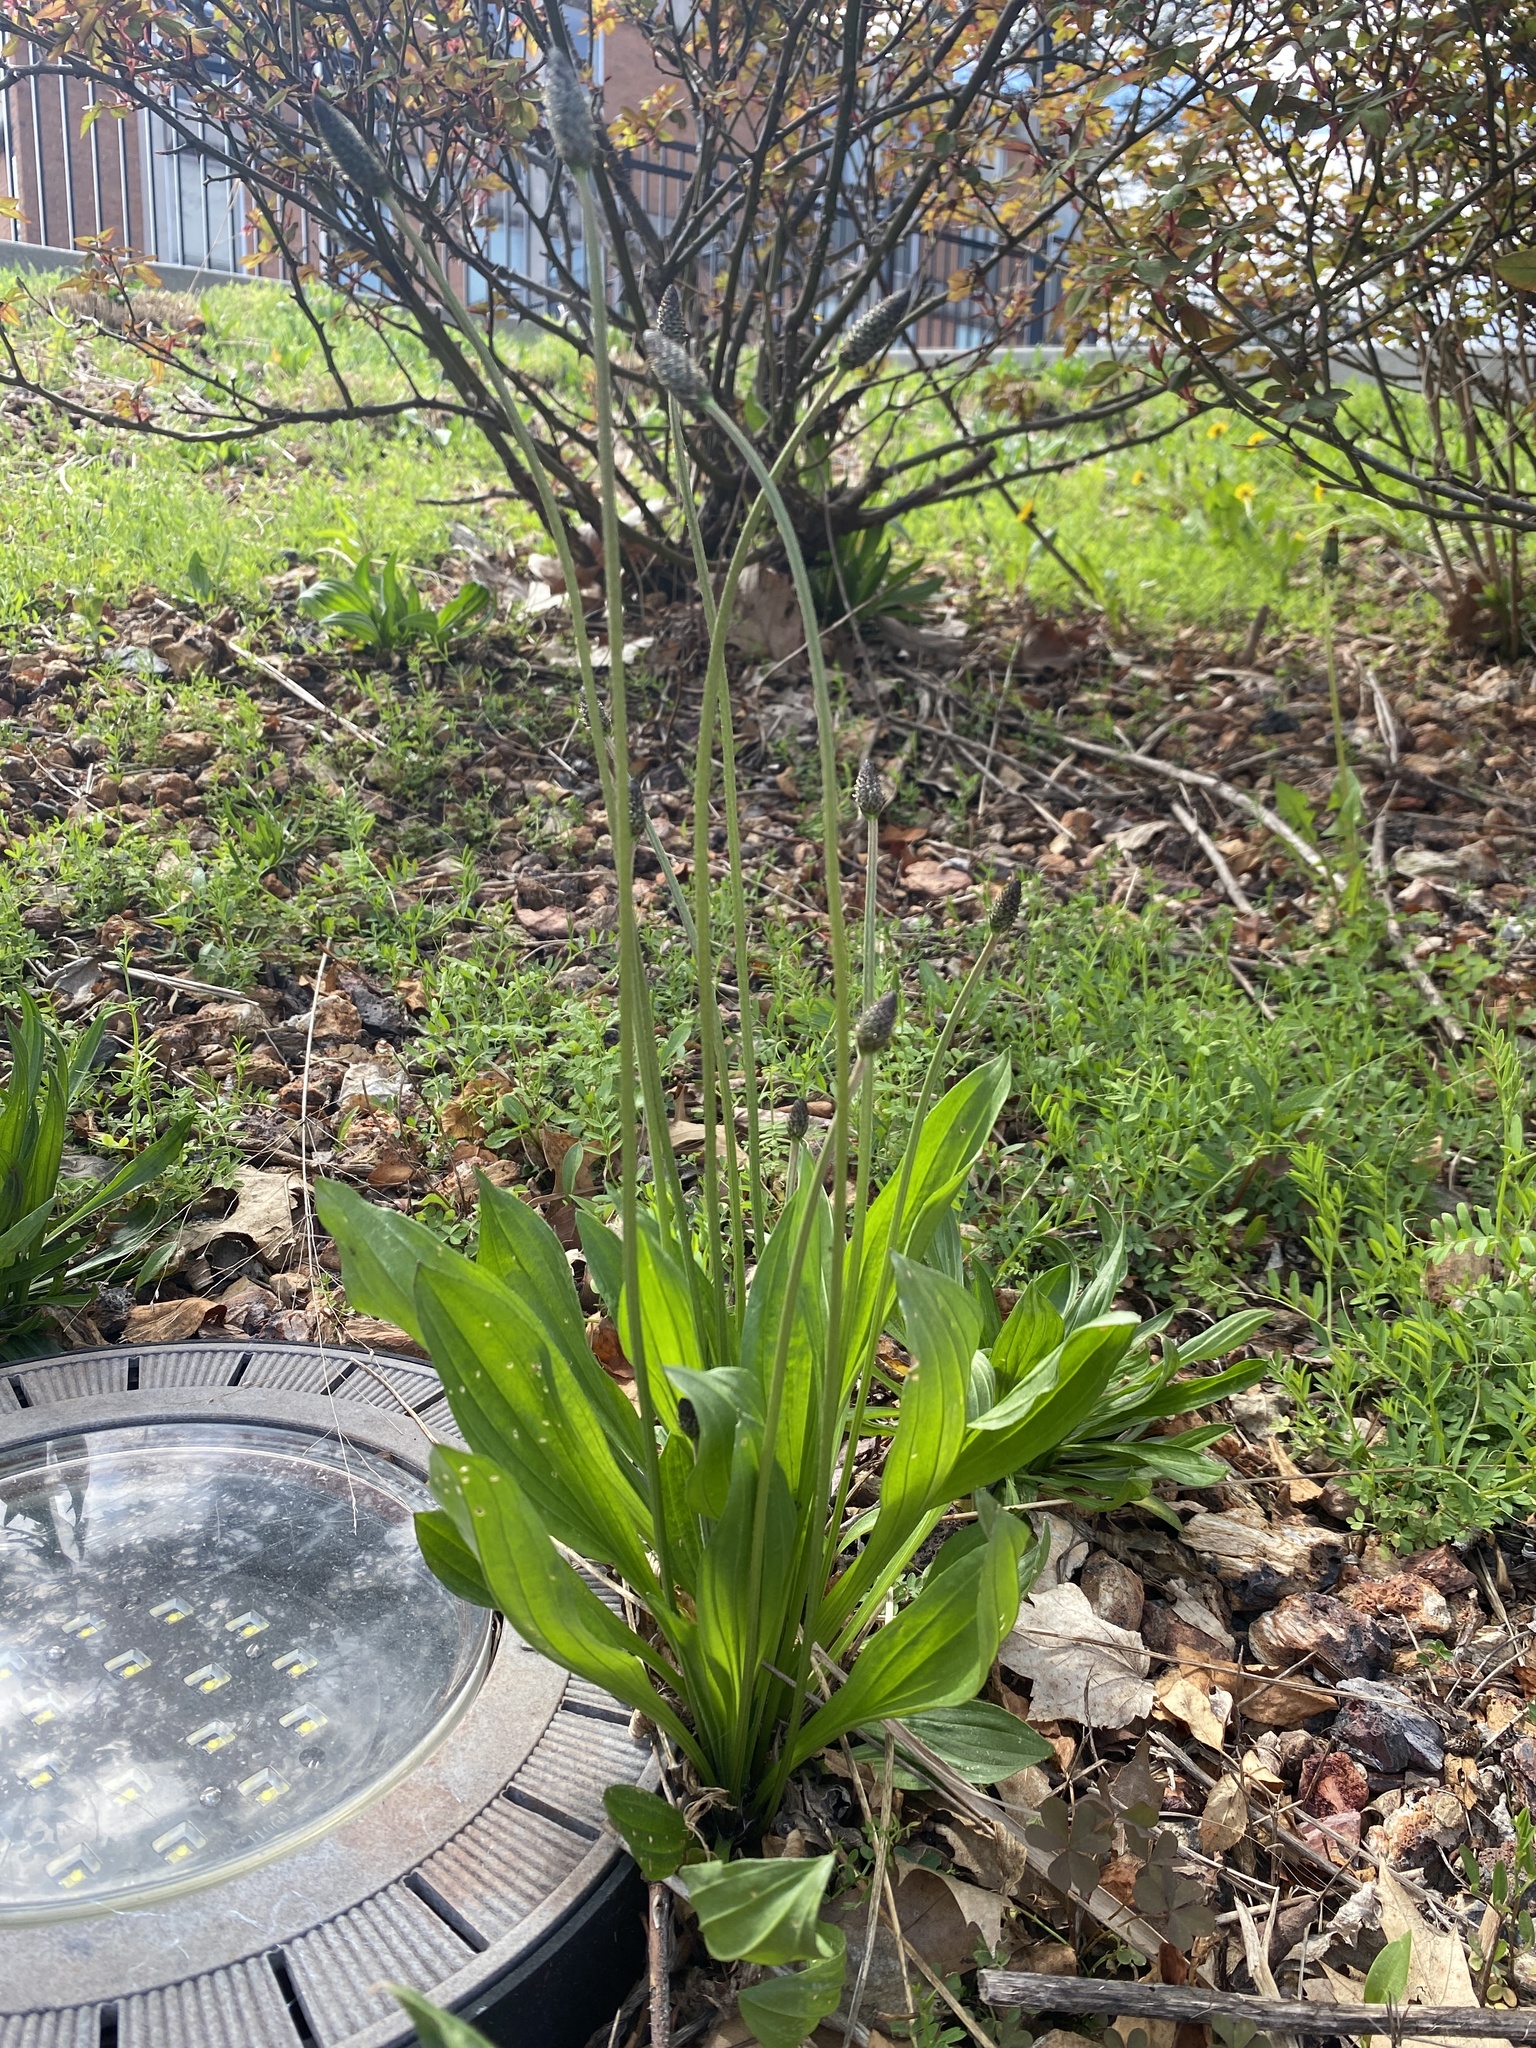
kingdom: Plantae
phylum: Tracheophyta
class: Magnoliopsida
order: Lamiales
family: Plantaginaceae
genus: Plantago
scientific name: Plantago lanceolata
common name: Ribwort plantain
